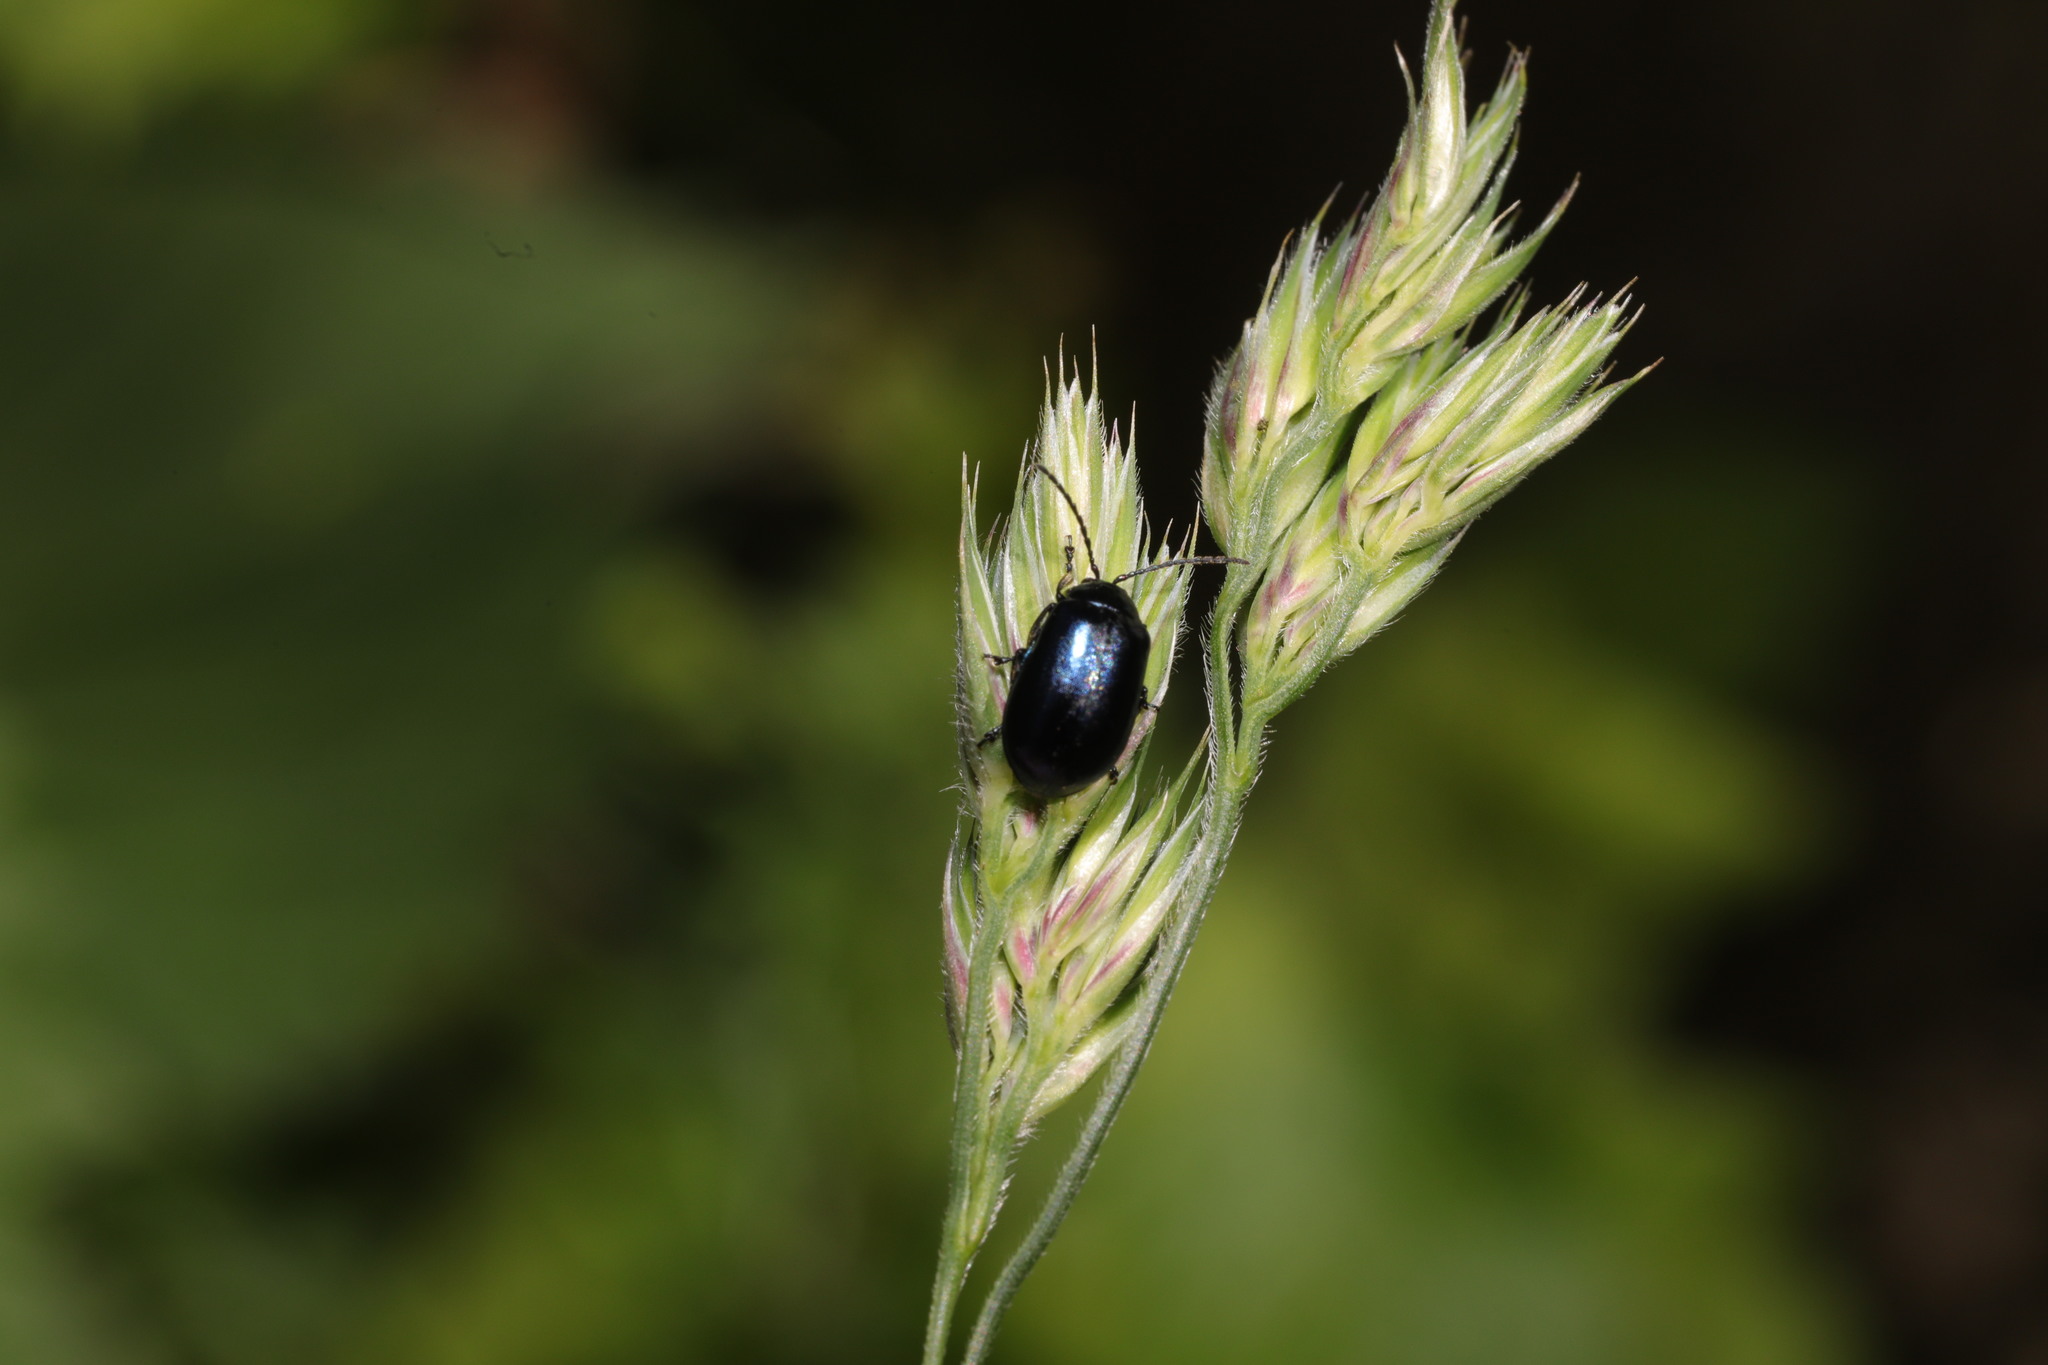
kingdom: Animalia
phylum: Arthropoda
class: Insecta
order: Coleoptera
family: Chrysomelidae
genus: Agelastica
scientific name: Agelastica alni
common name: Alder leaf beetle
